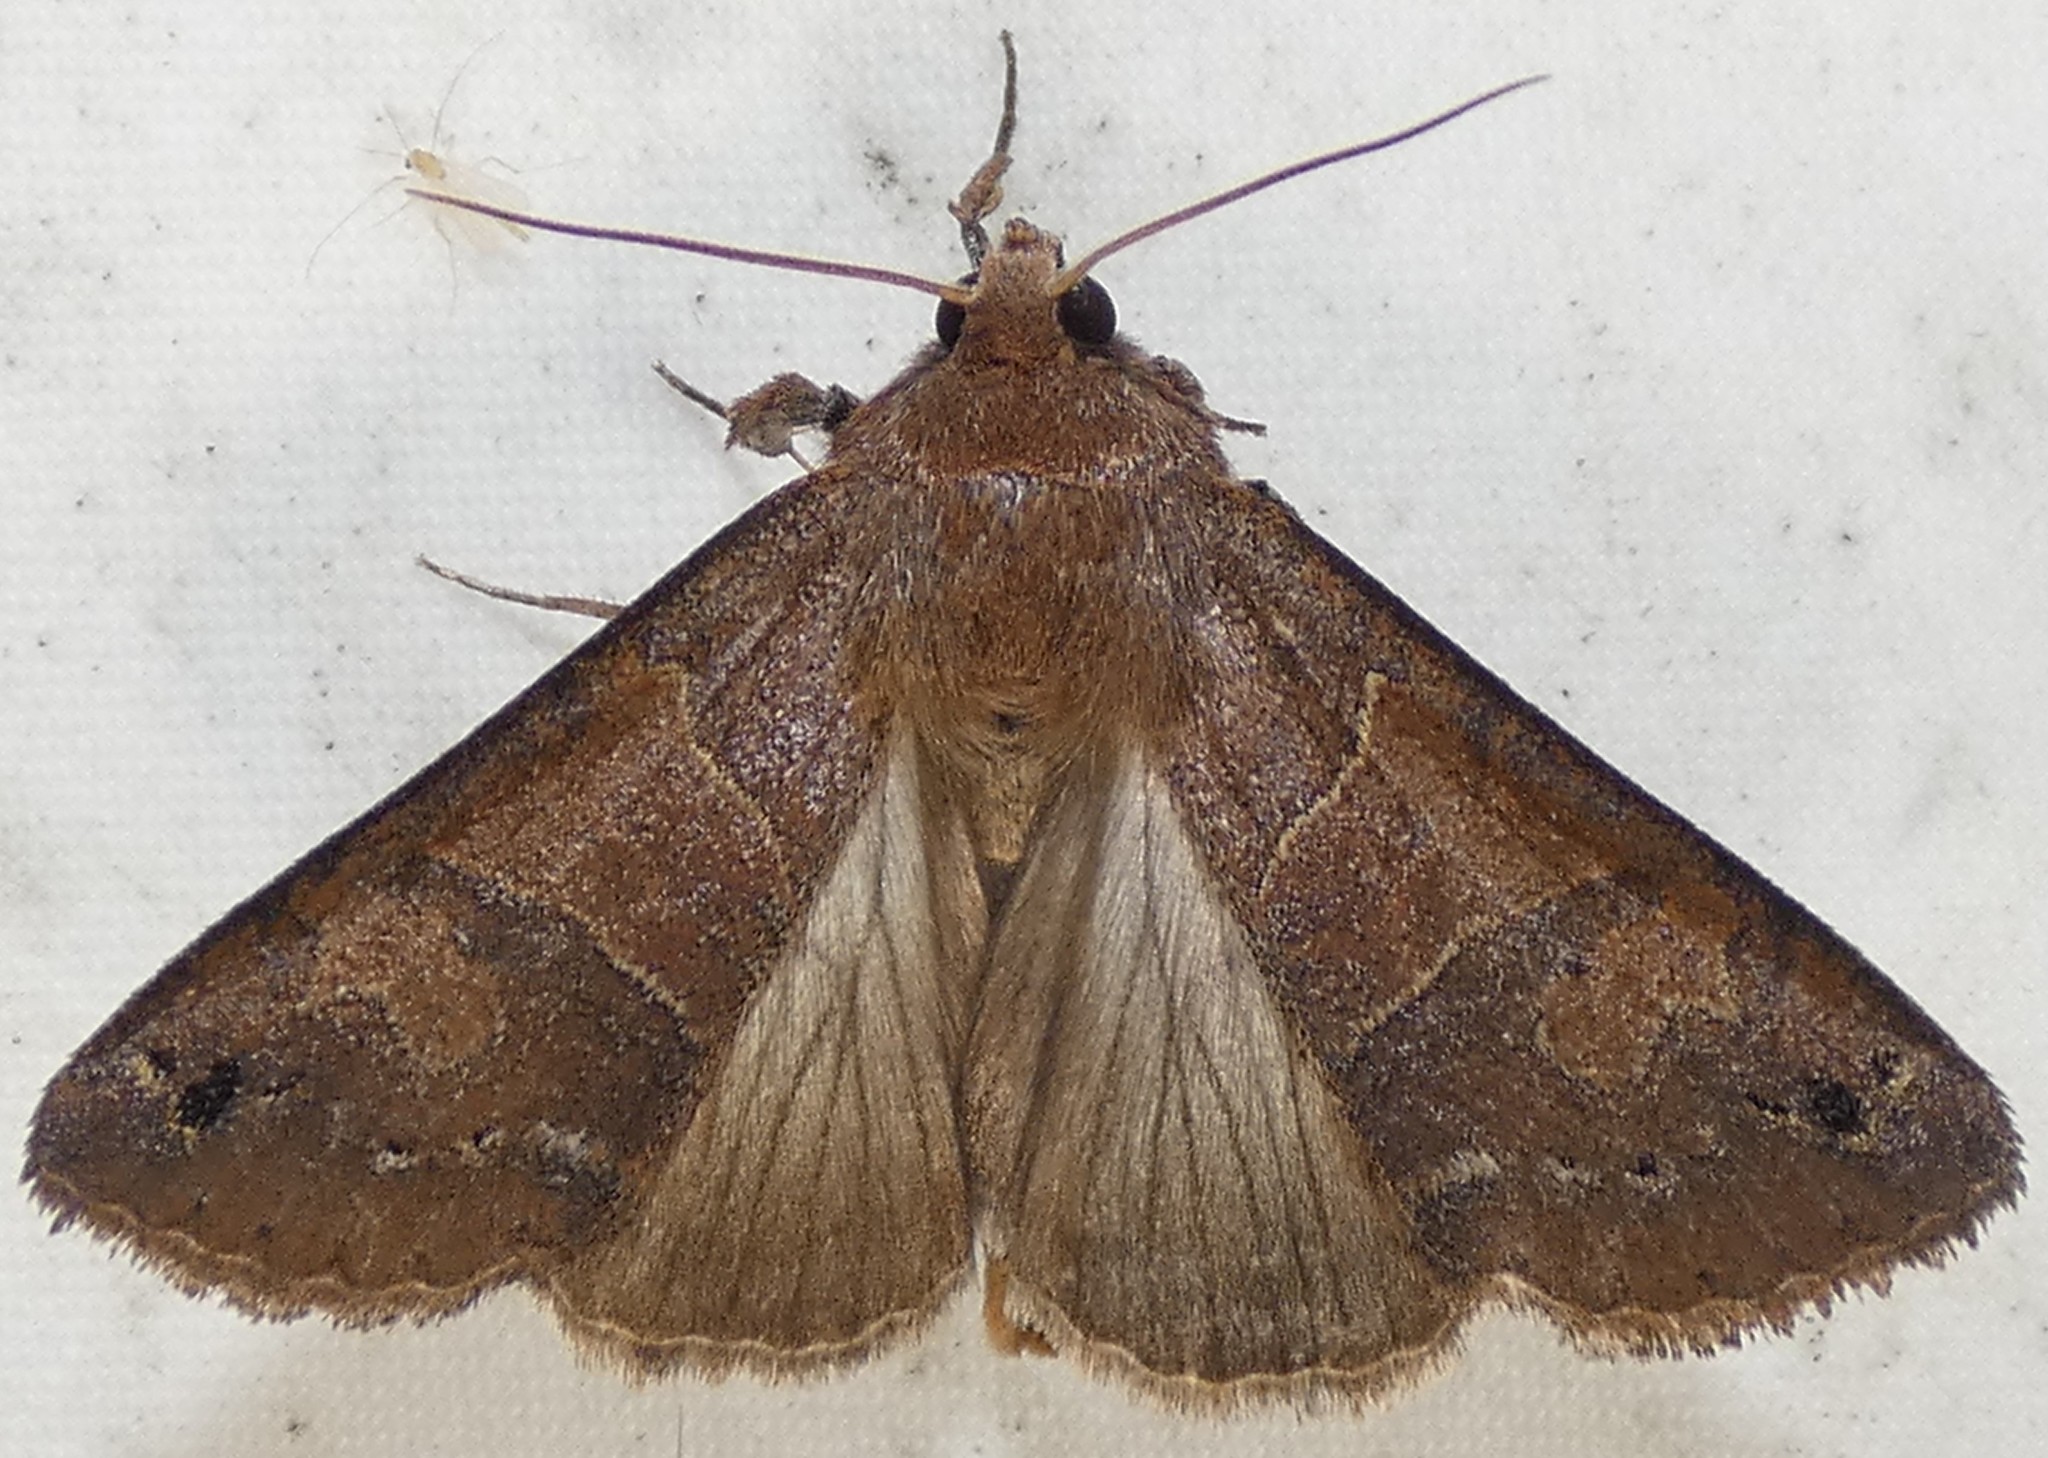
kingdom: Animalia
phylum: Arthropoda
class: Insecta
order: Lepidoptera
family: Erebidae
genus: Cissusa
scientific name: Cissusa spadix
